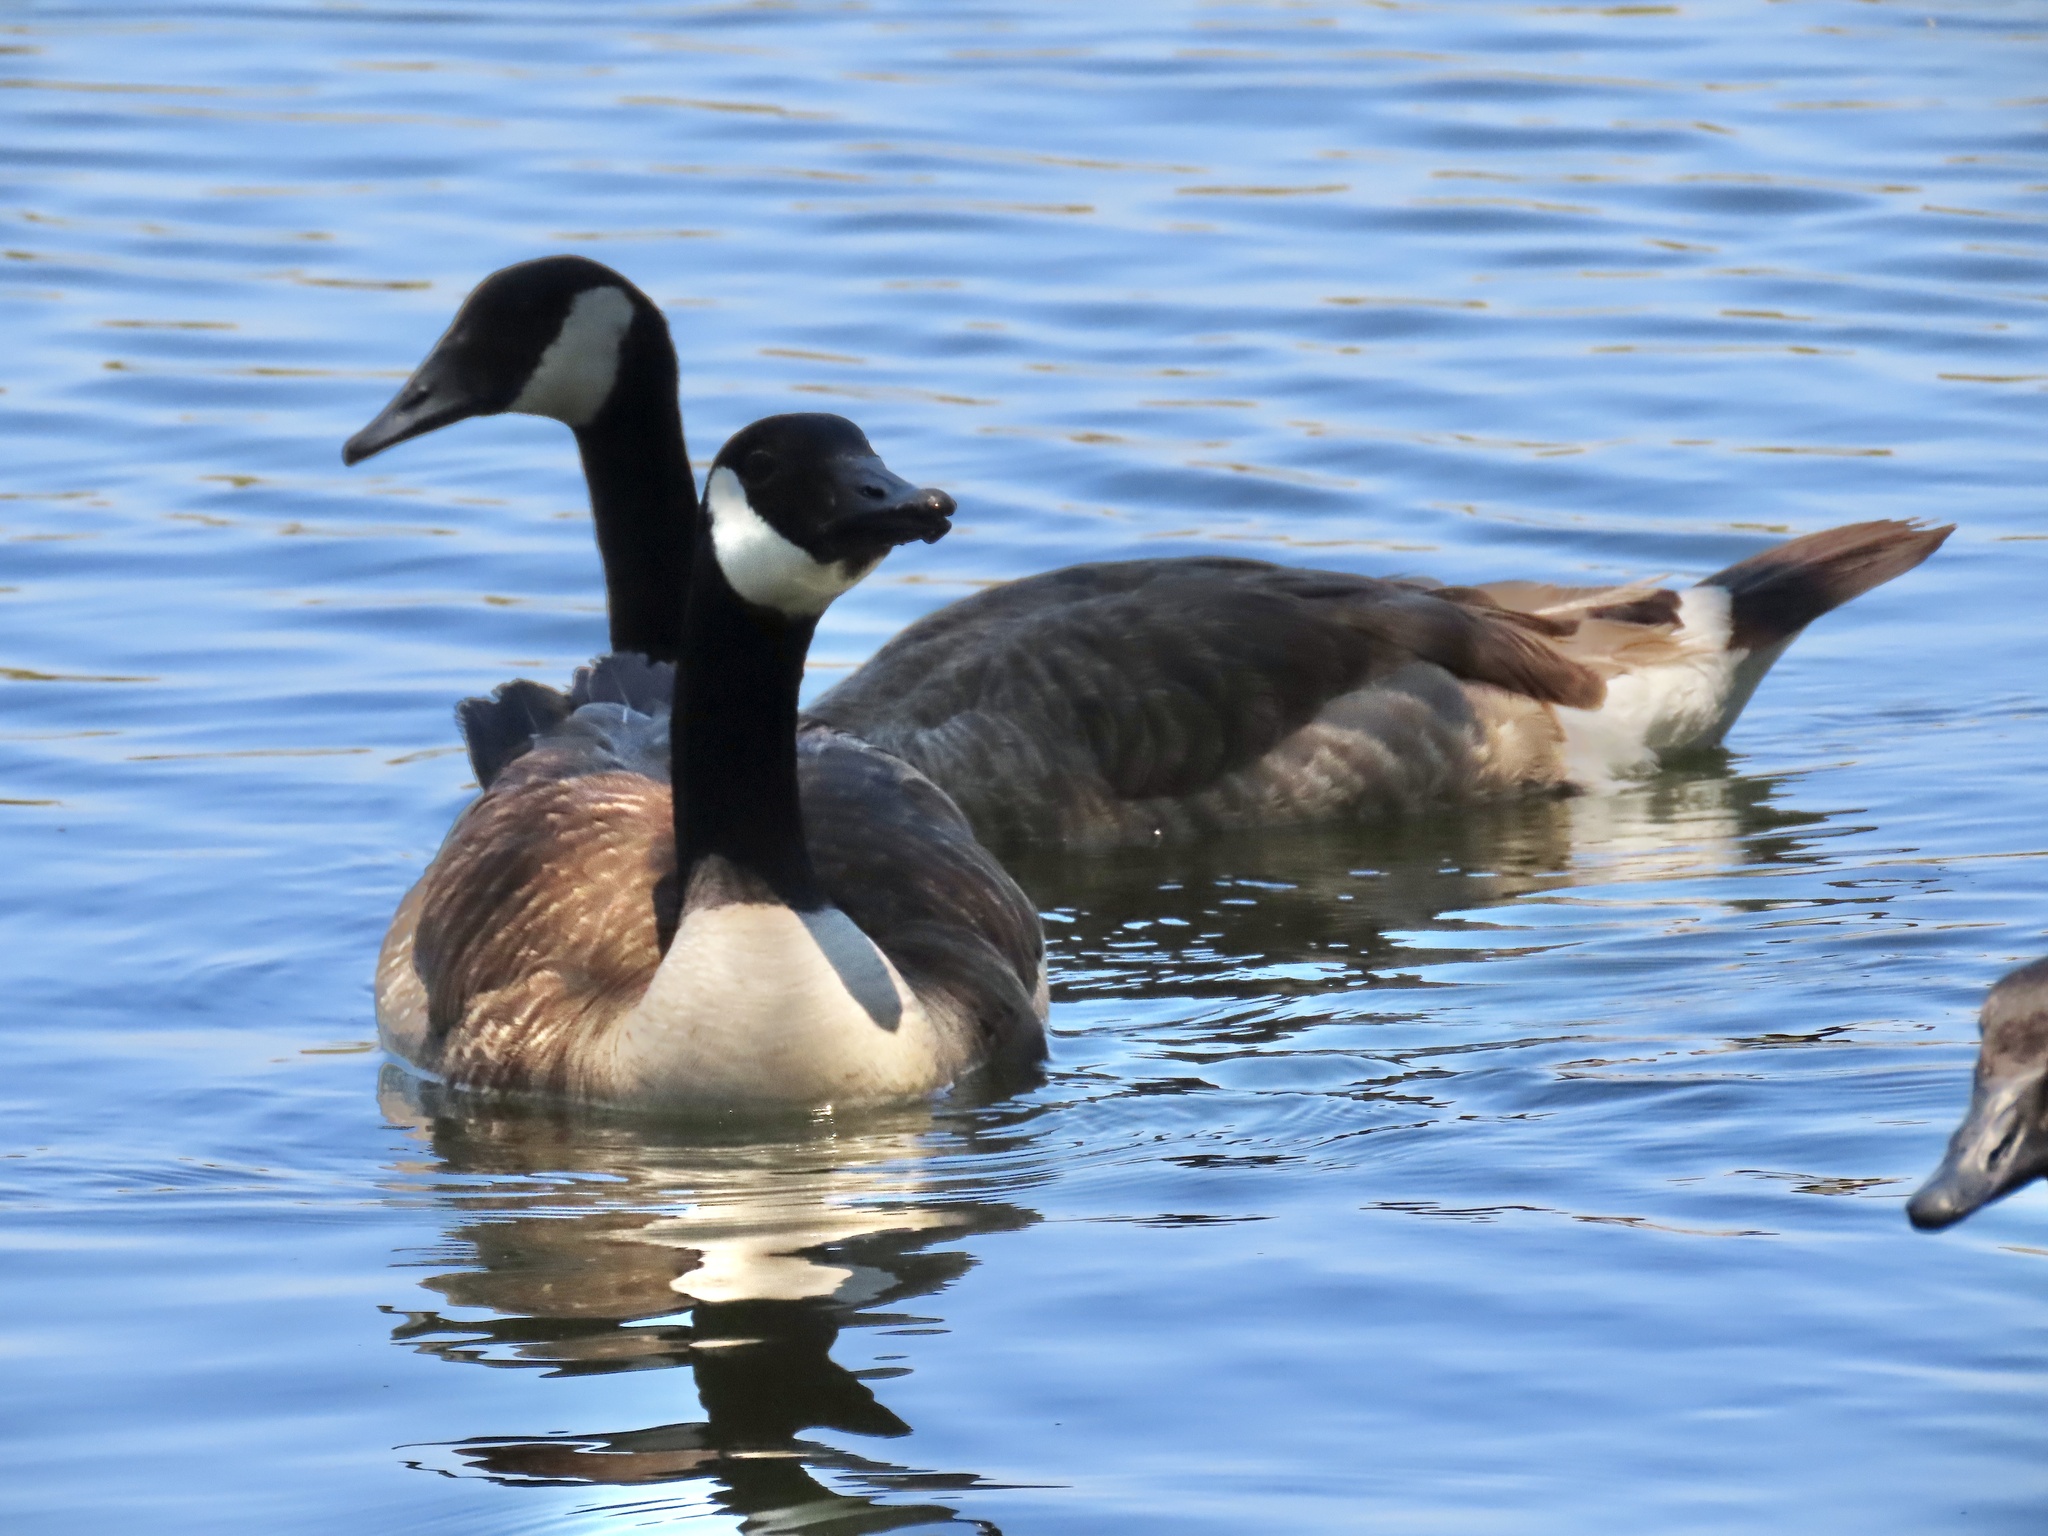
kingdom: Animalia
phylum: Chordata
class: Aves
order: Anseriformes
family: Anatidae
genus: Branta
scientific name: Branta canadensis
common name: Canada goose
